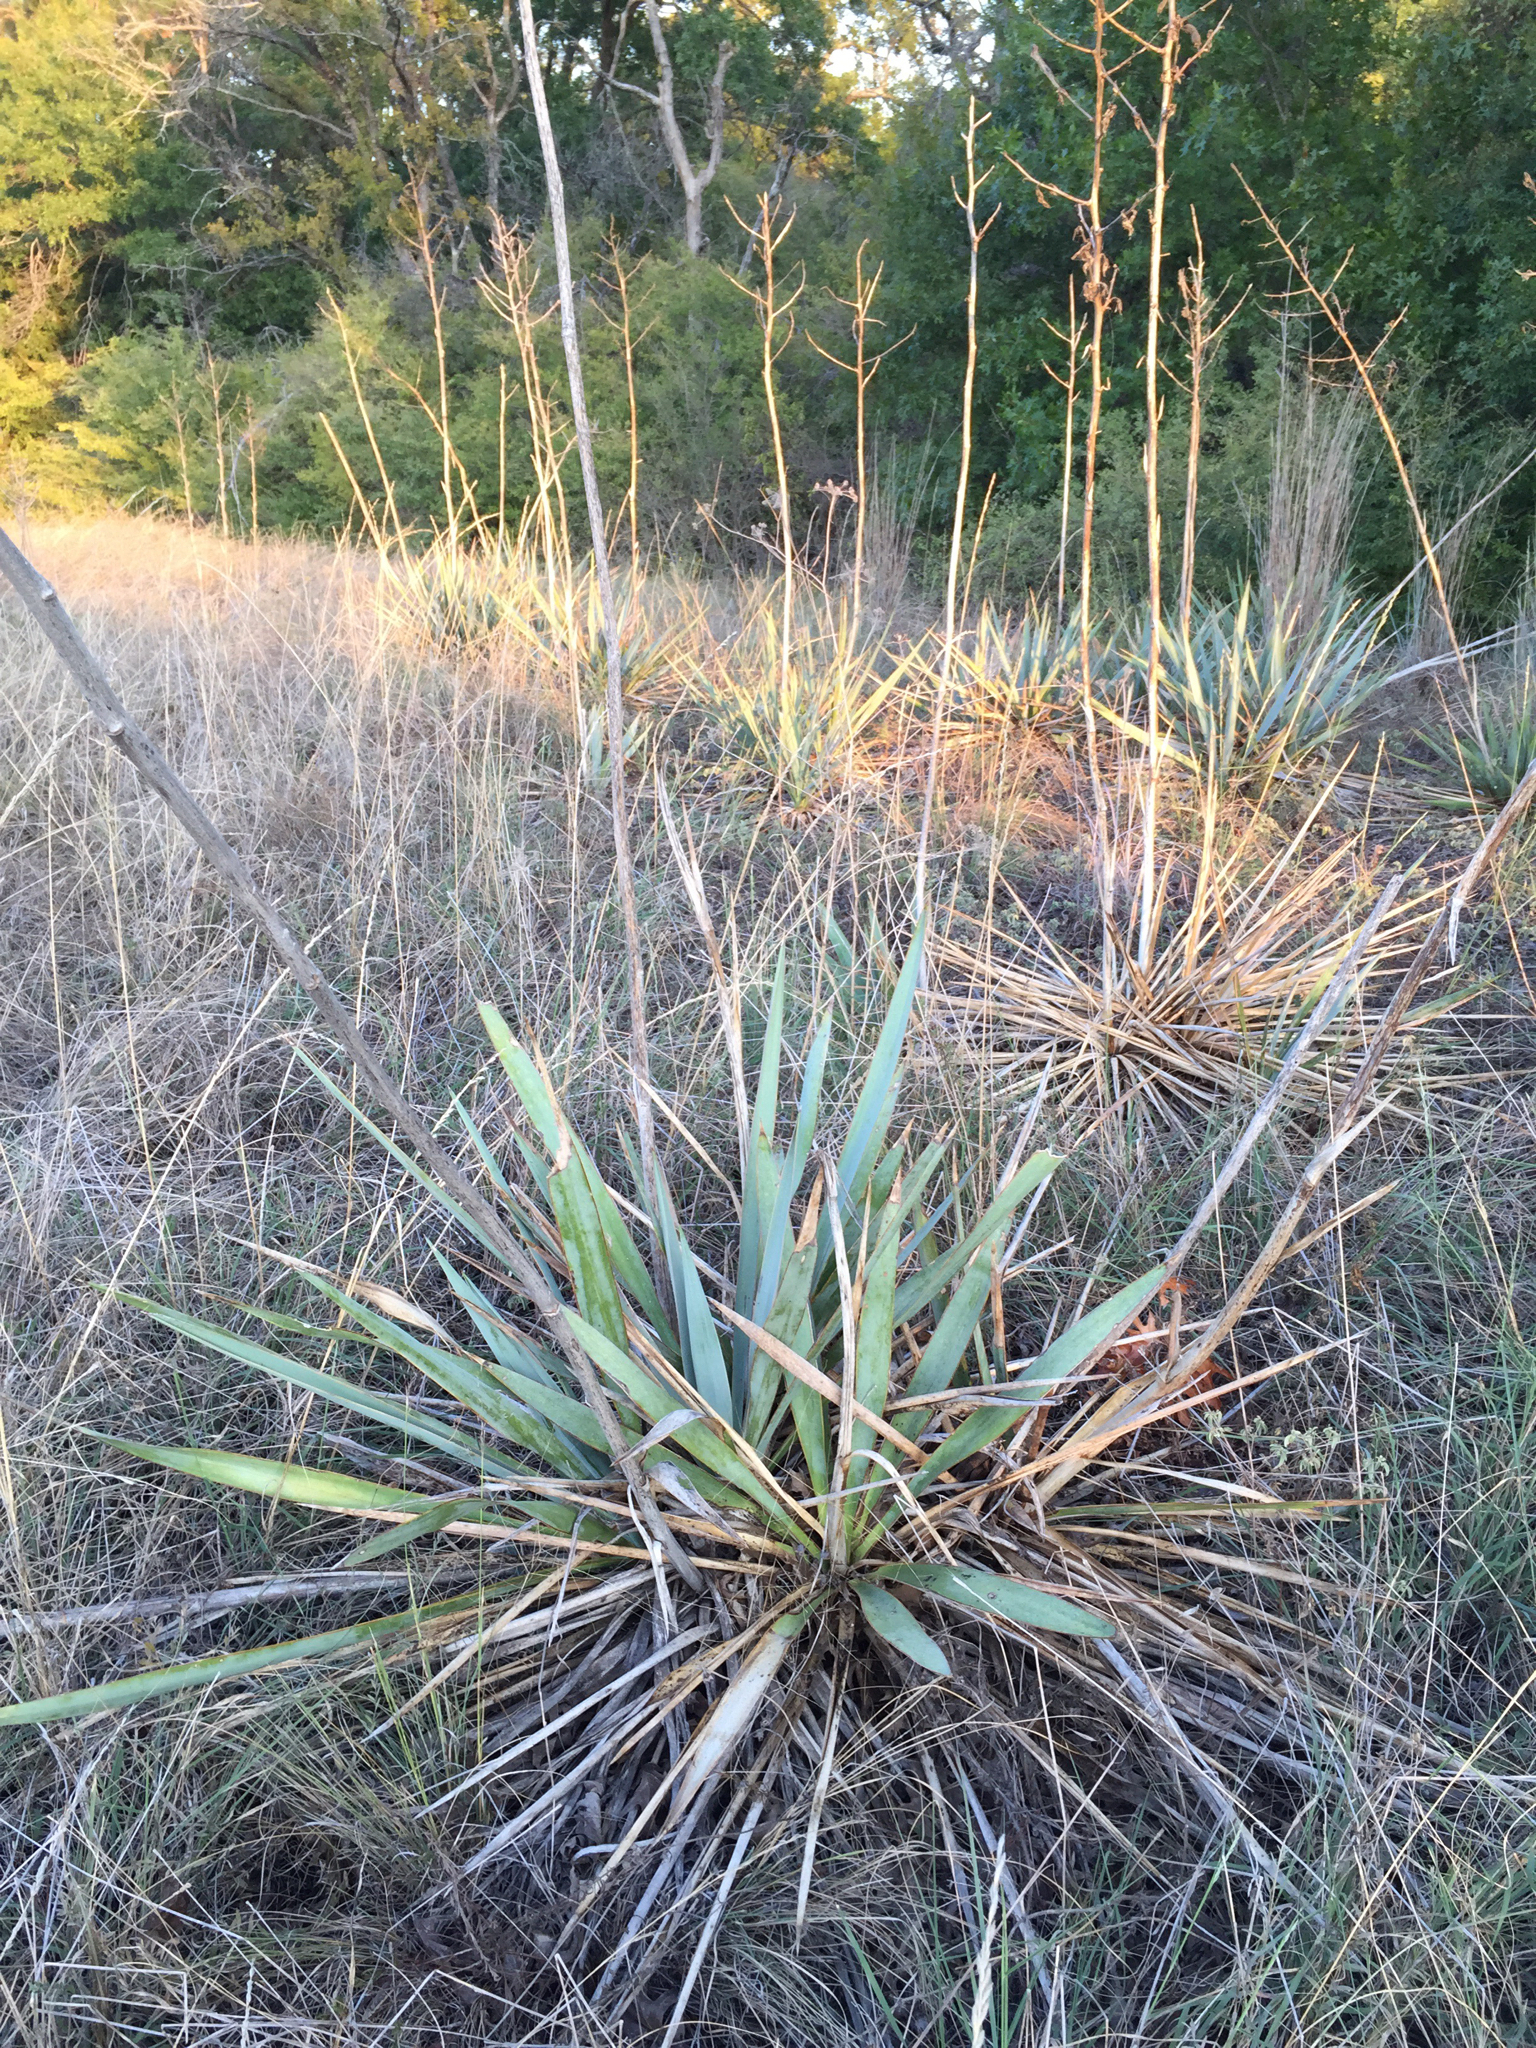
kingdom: Plantae
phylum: Tracheophyta
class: Liliopsida
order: Asparagales
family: Asparagaceae
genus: Yucca
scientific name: Yucca pallida
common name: Pale leaf yucca
